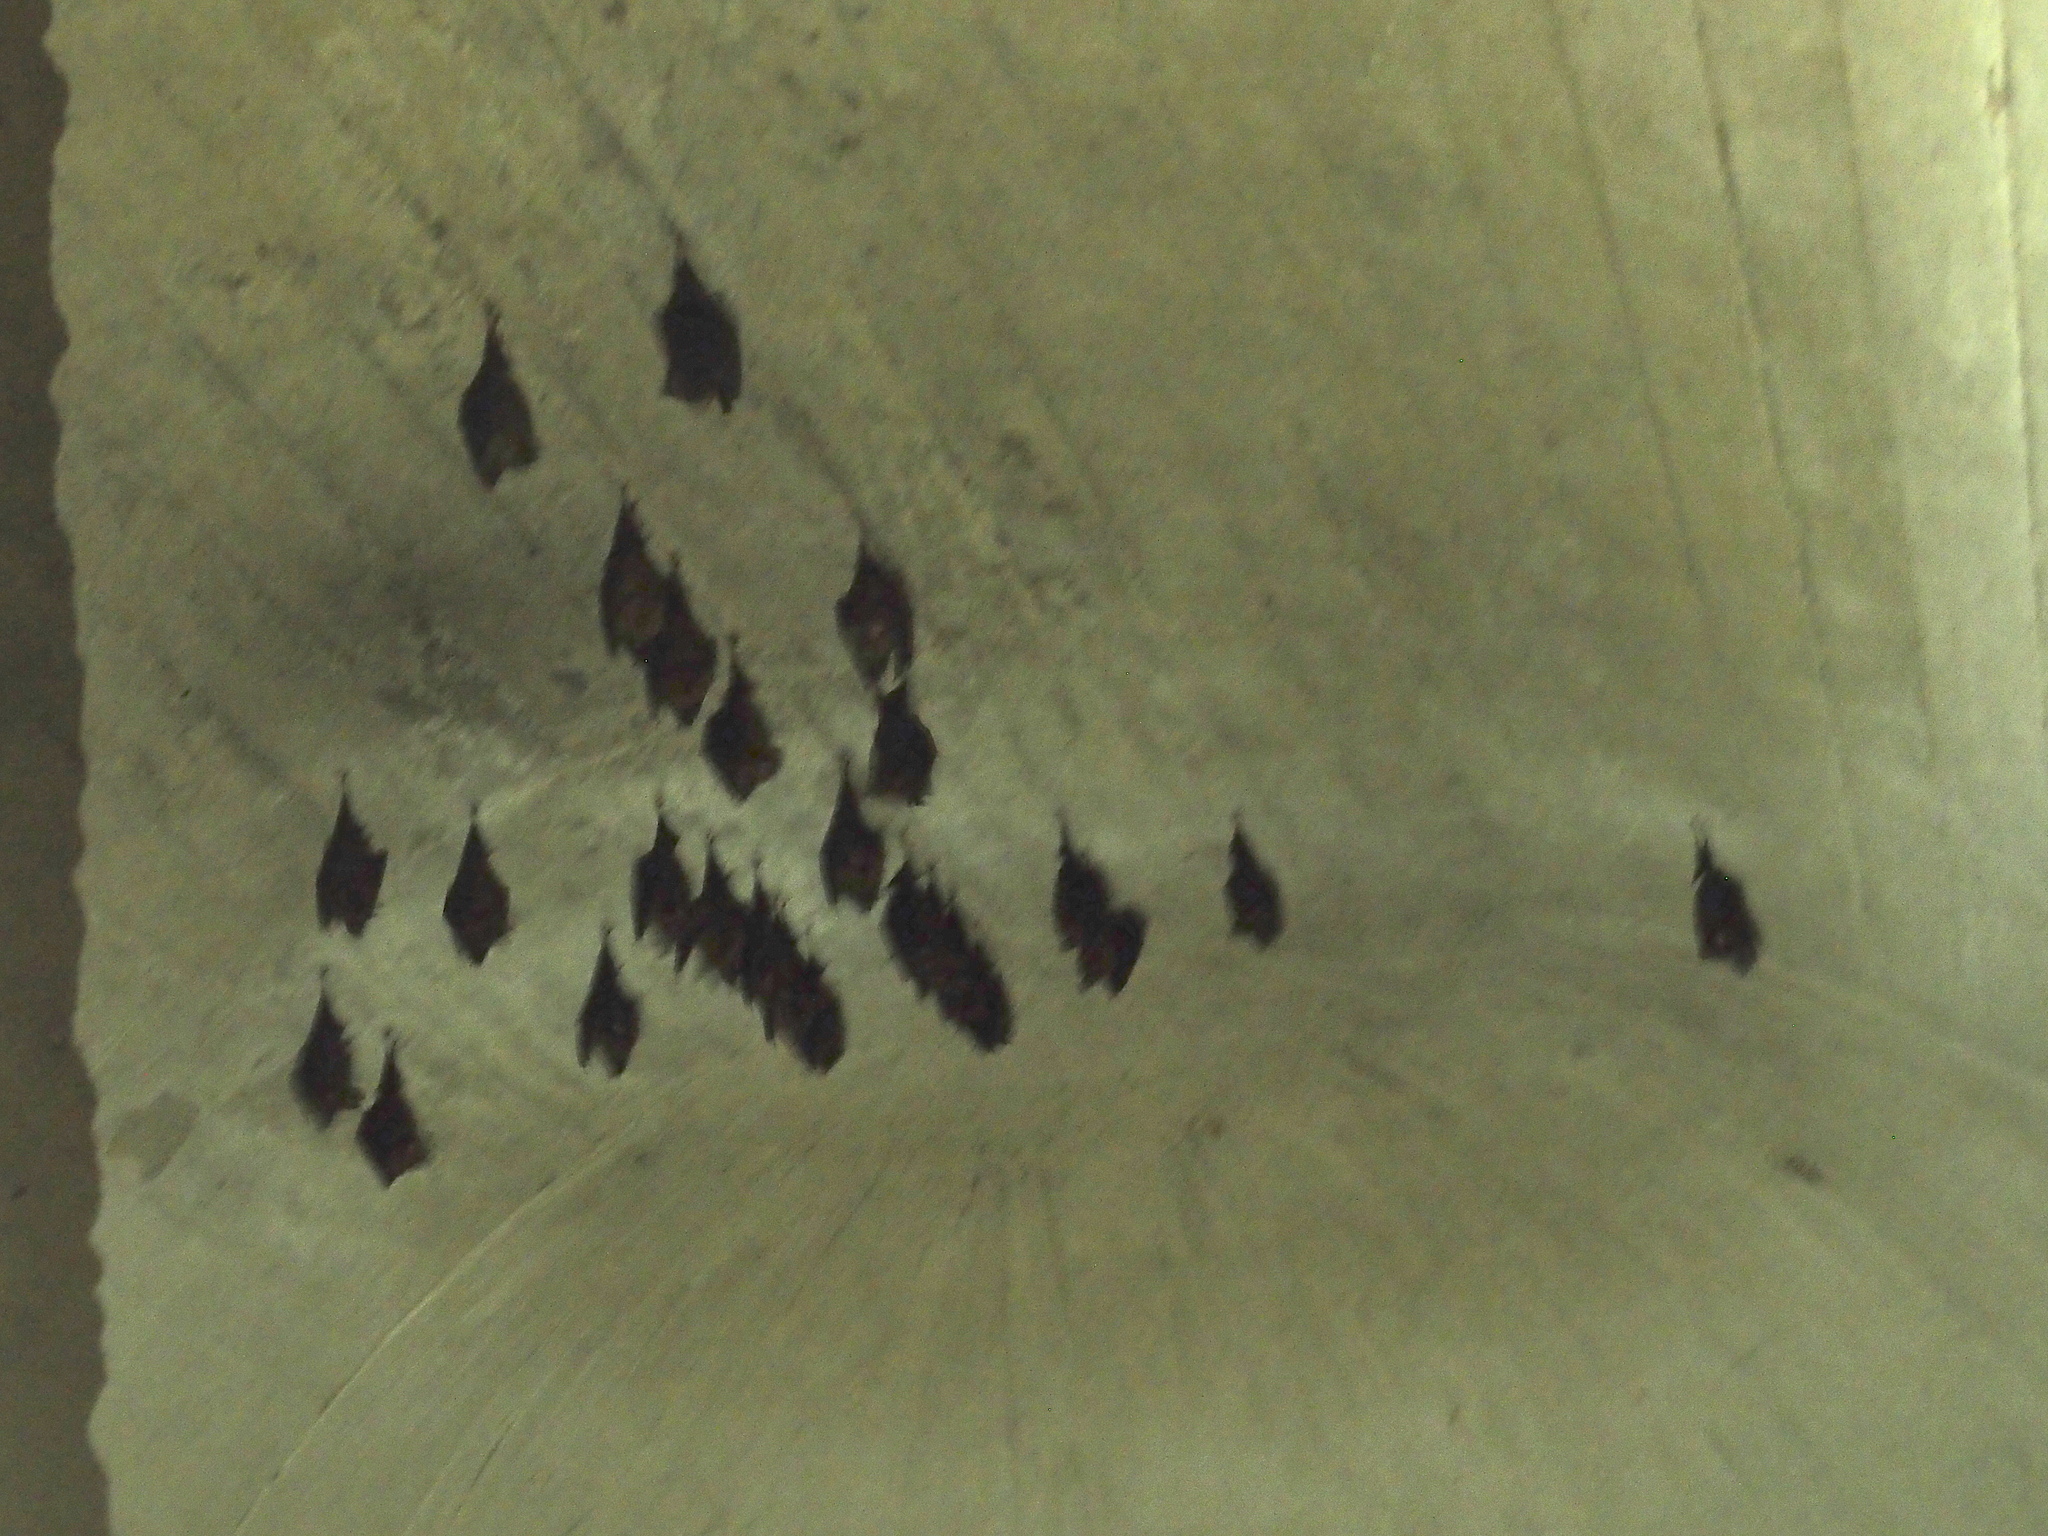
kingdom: Animalia
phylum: Chordata
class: Mammalia
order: Chiroptera
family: Hipposideridae
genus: Hipposideros
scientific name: Hipposideros armiger
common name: Great leaf-nosed bat
